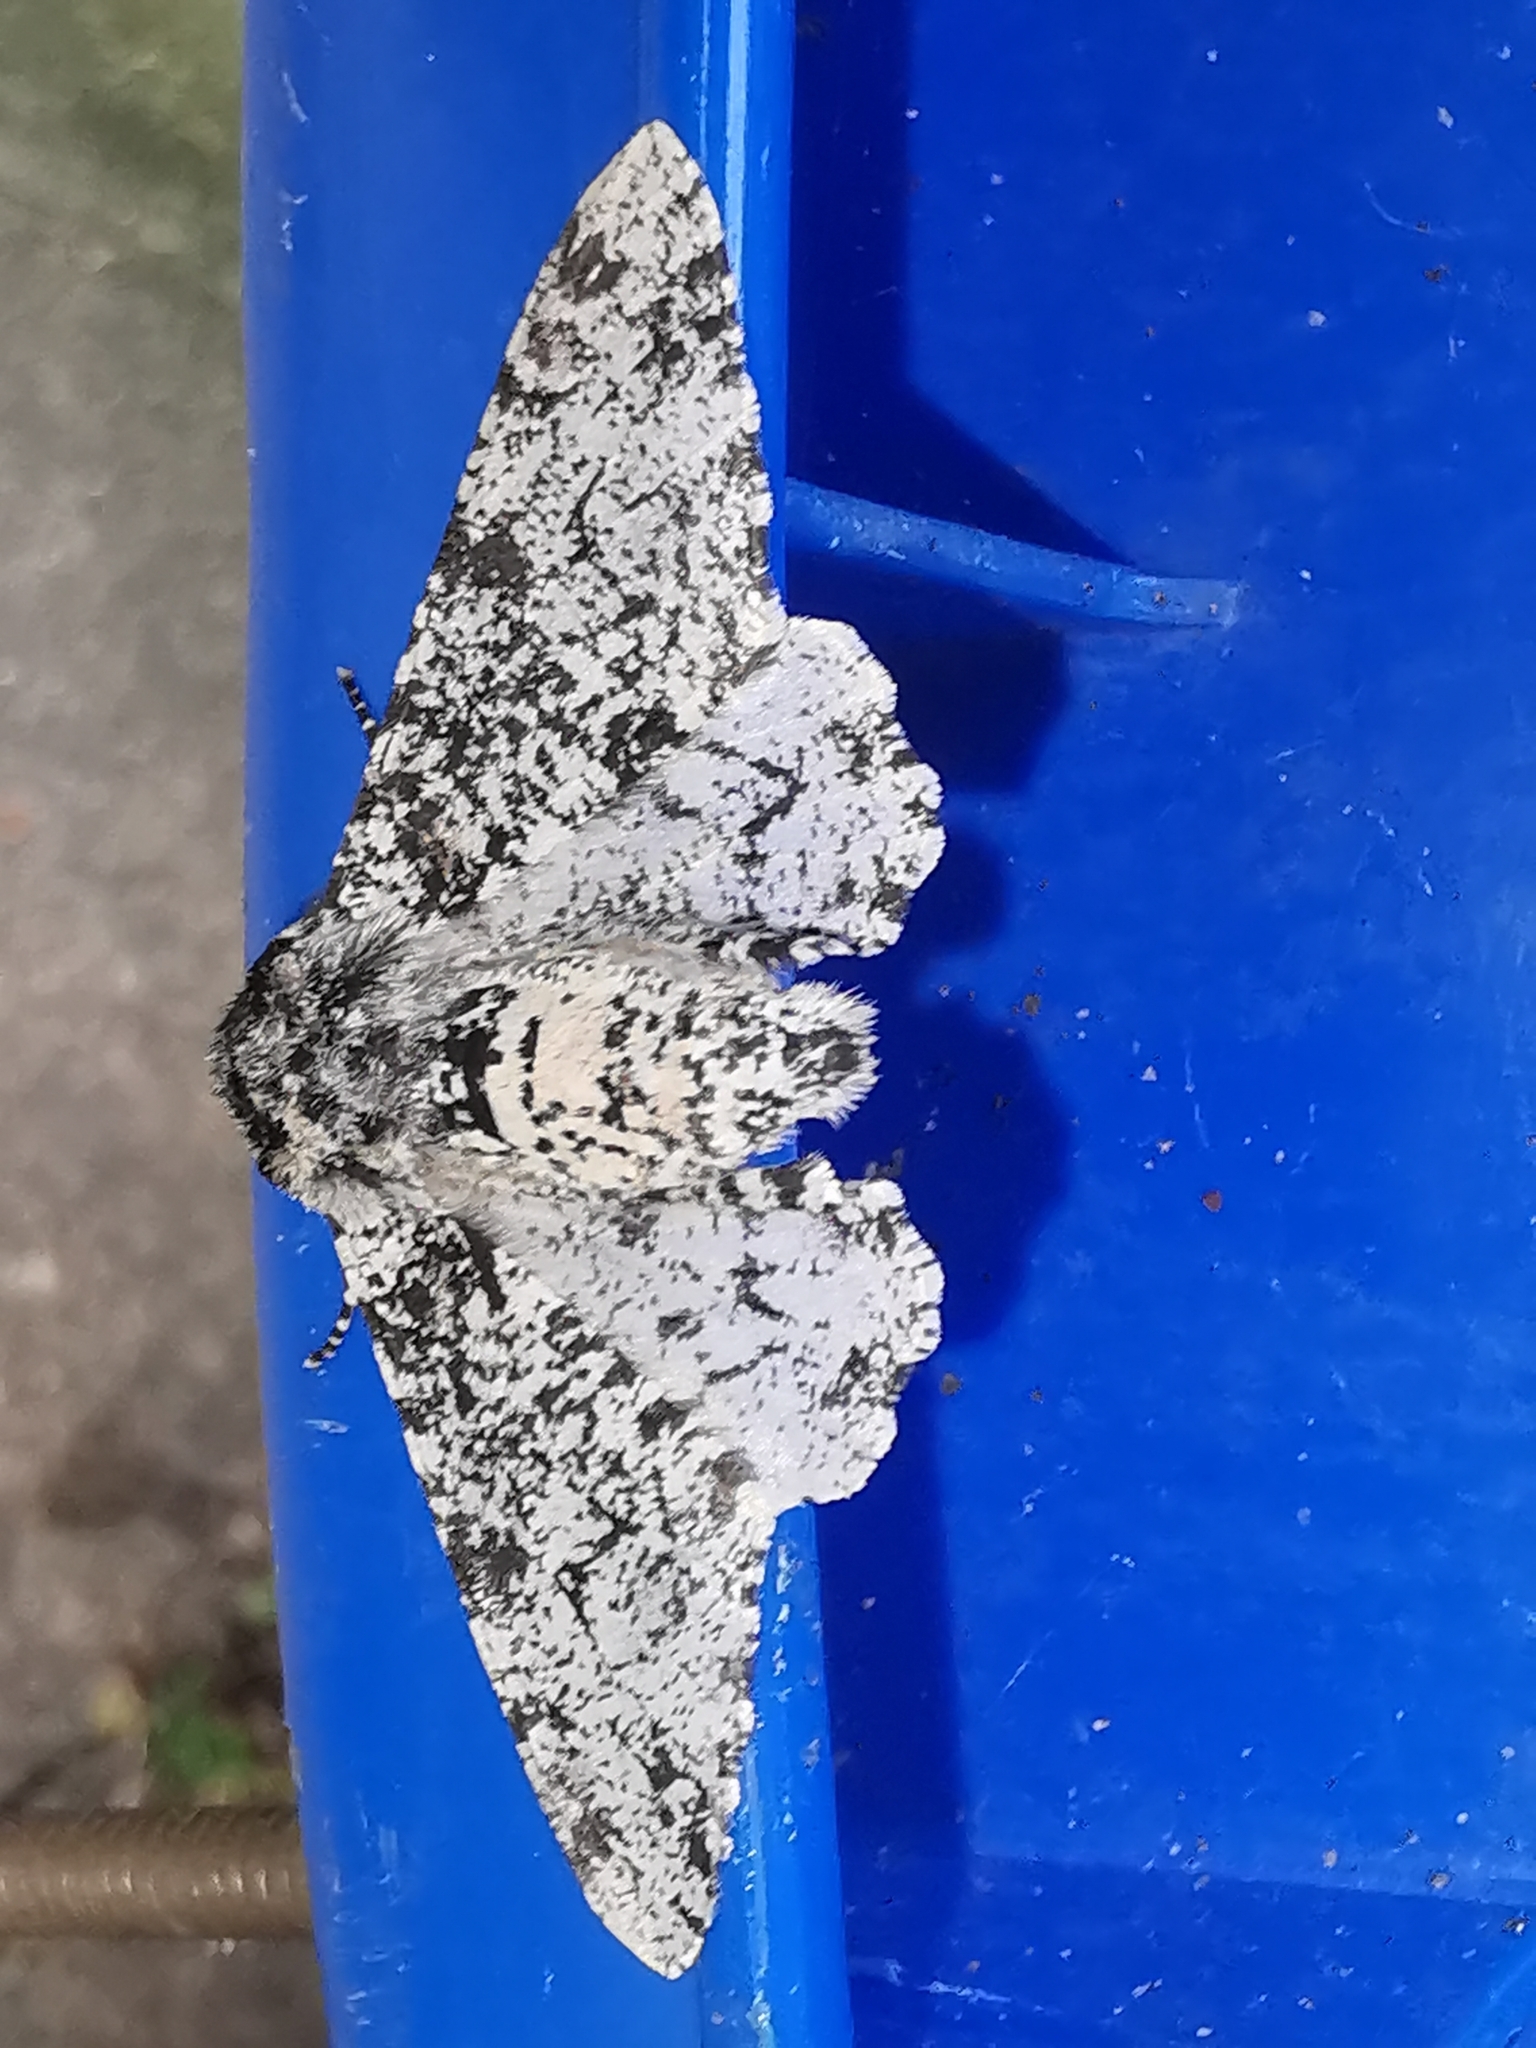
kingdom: Animalia
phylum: Arthropoda
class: Insecta
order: Lepidoptera
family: Geometridae
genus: Biston
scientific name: Biston betularia
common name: Peppered moth
